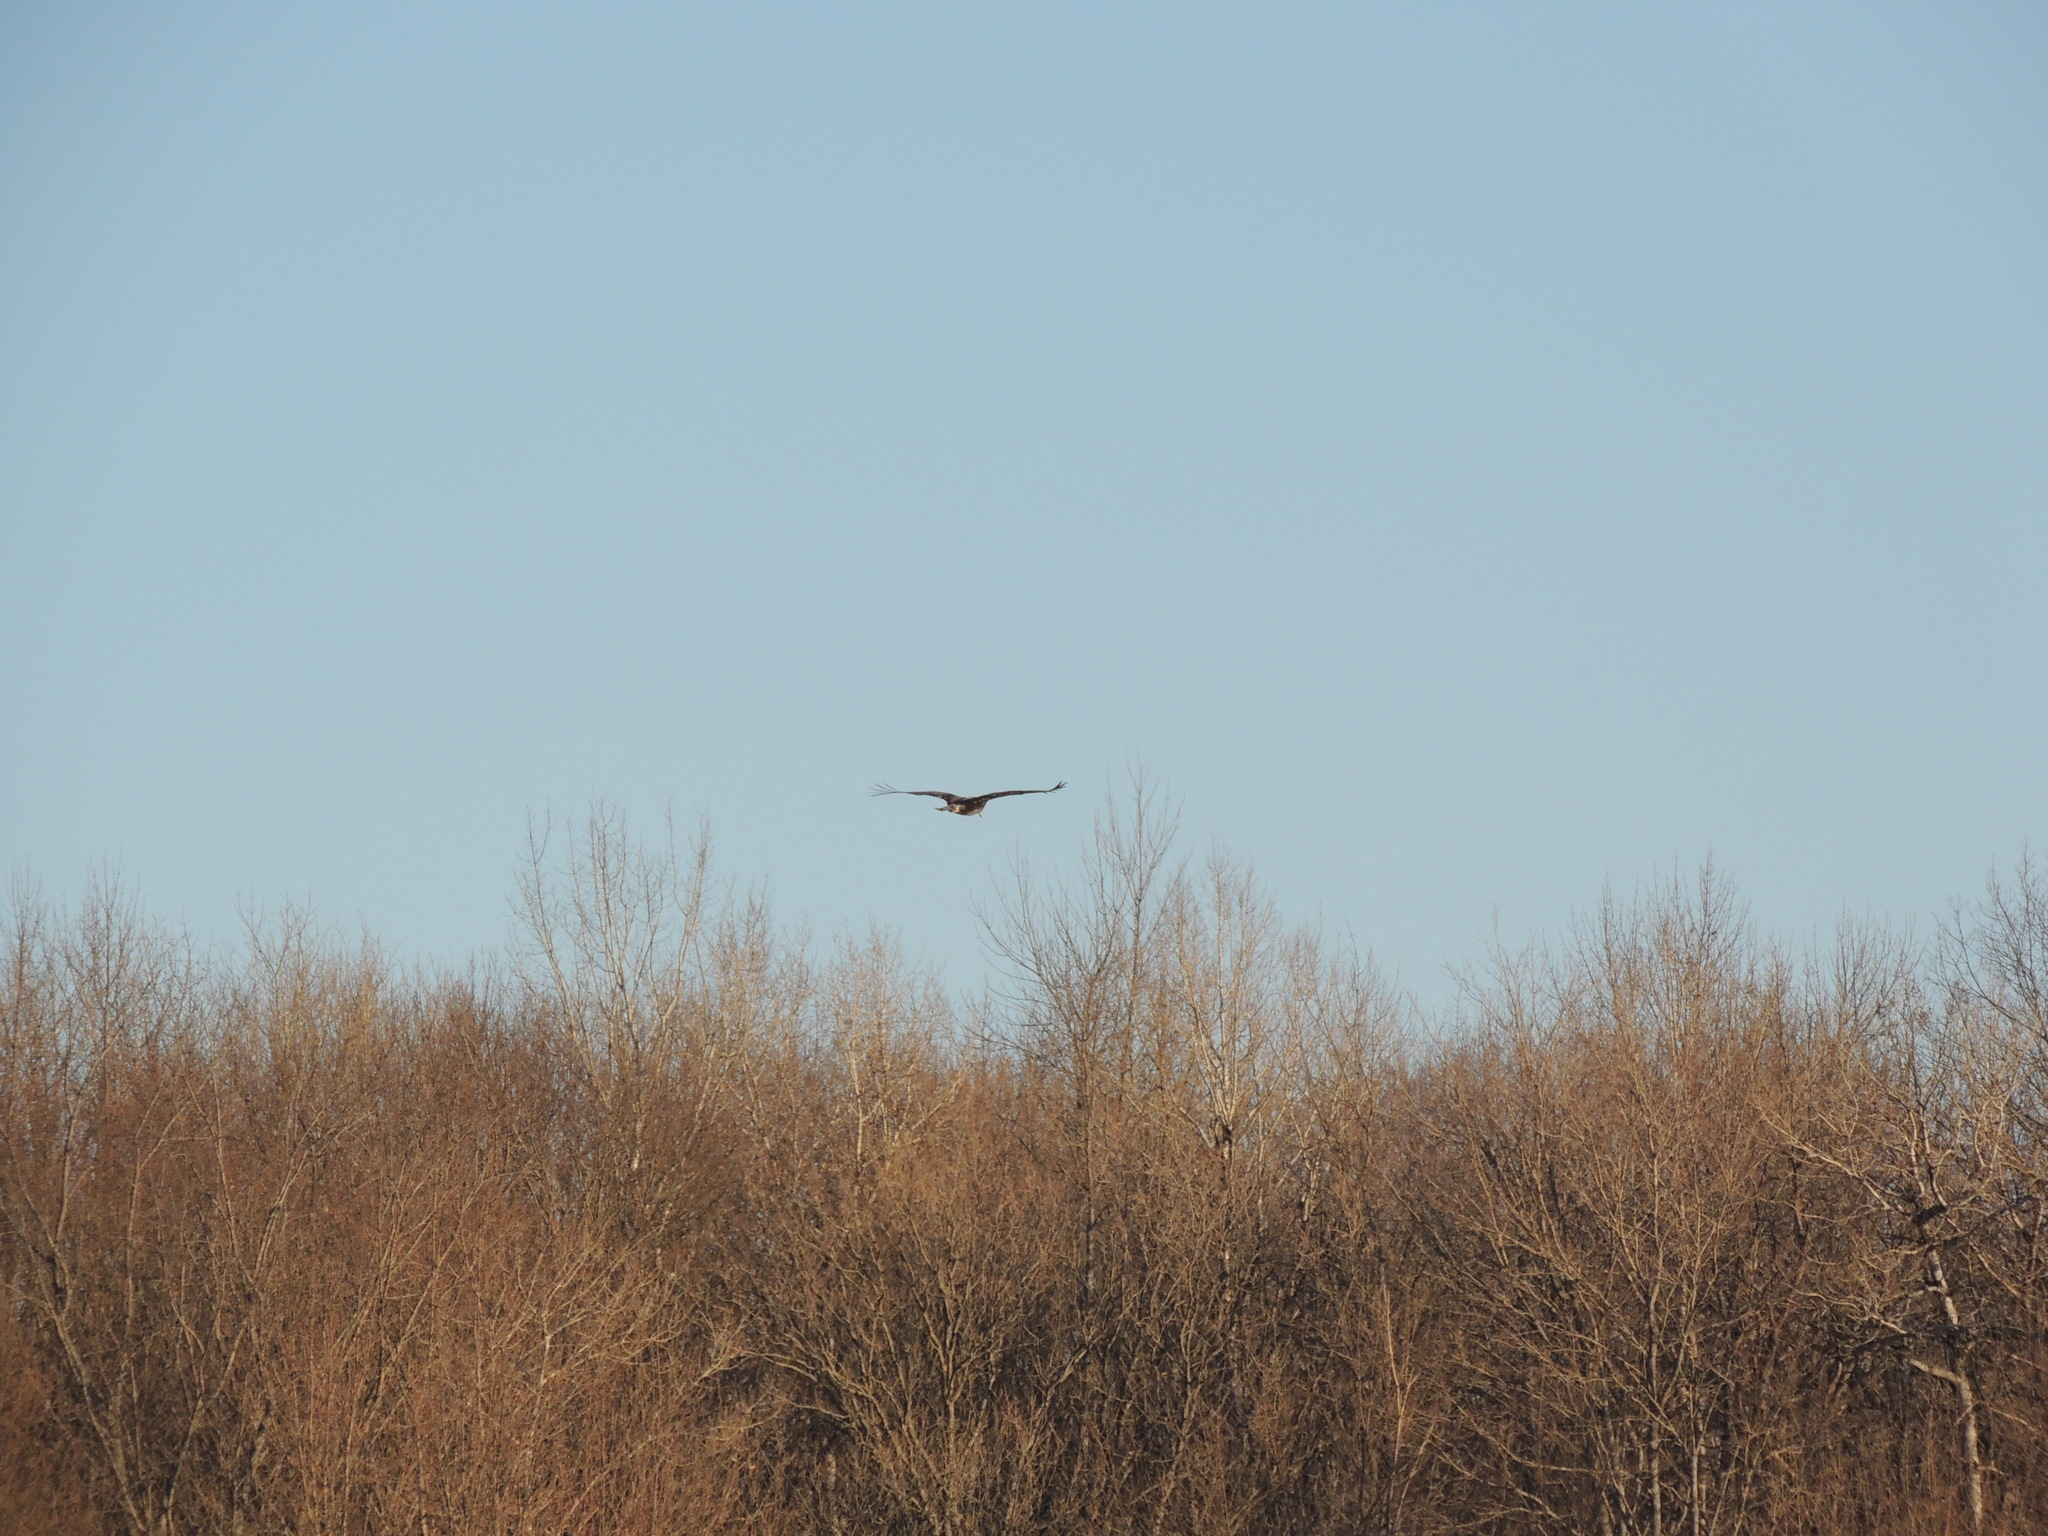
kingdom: Animalia
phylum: Chordata
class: Aves
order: Accipitriformes
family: Accipitridae
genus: Haliaeetus
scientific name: Haliaeetus leucocephalus
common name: Bald eagle
